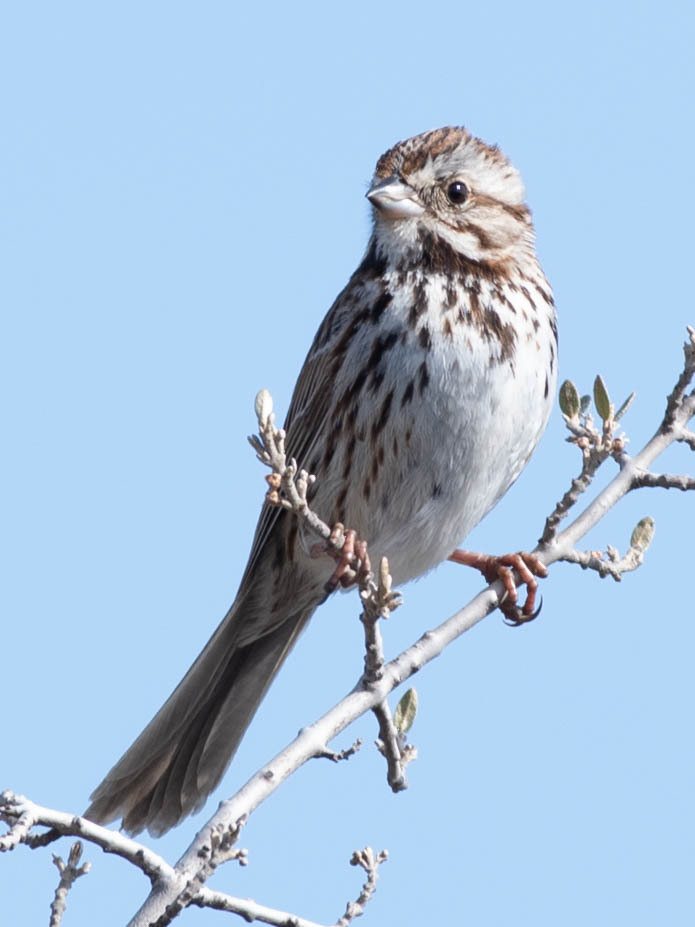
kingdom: Animalia
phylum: Chordata
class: Aves
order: Passeriformes
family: Passerellidae
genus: Melospiza
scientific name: Melospiza melodia
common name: Song sparrow
